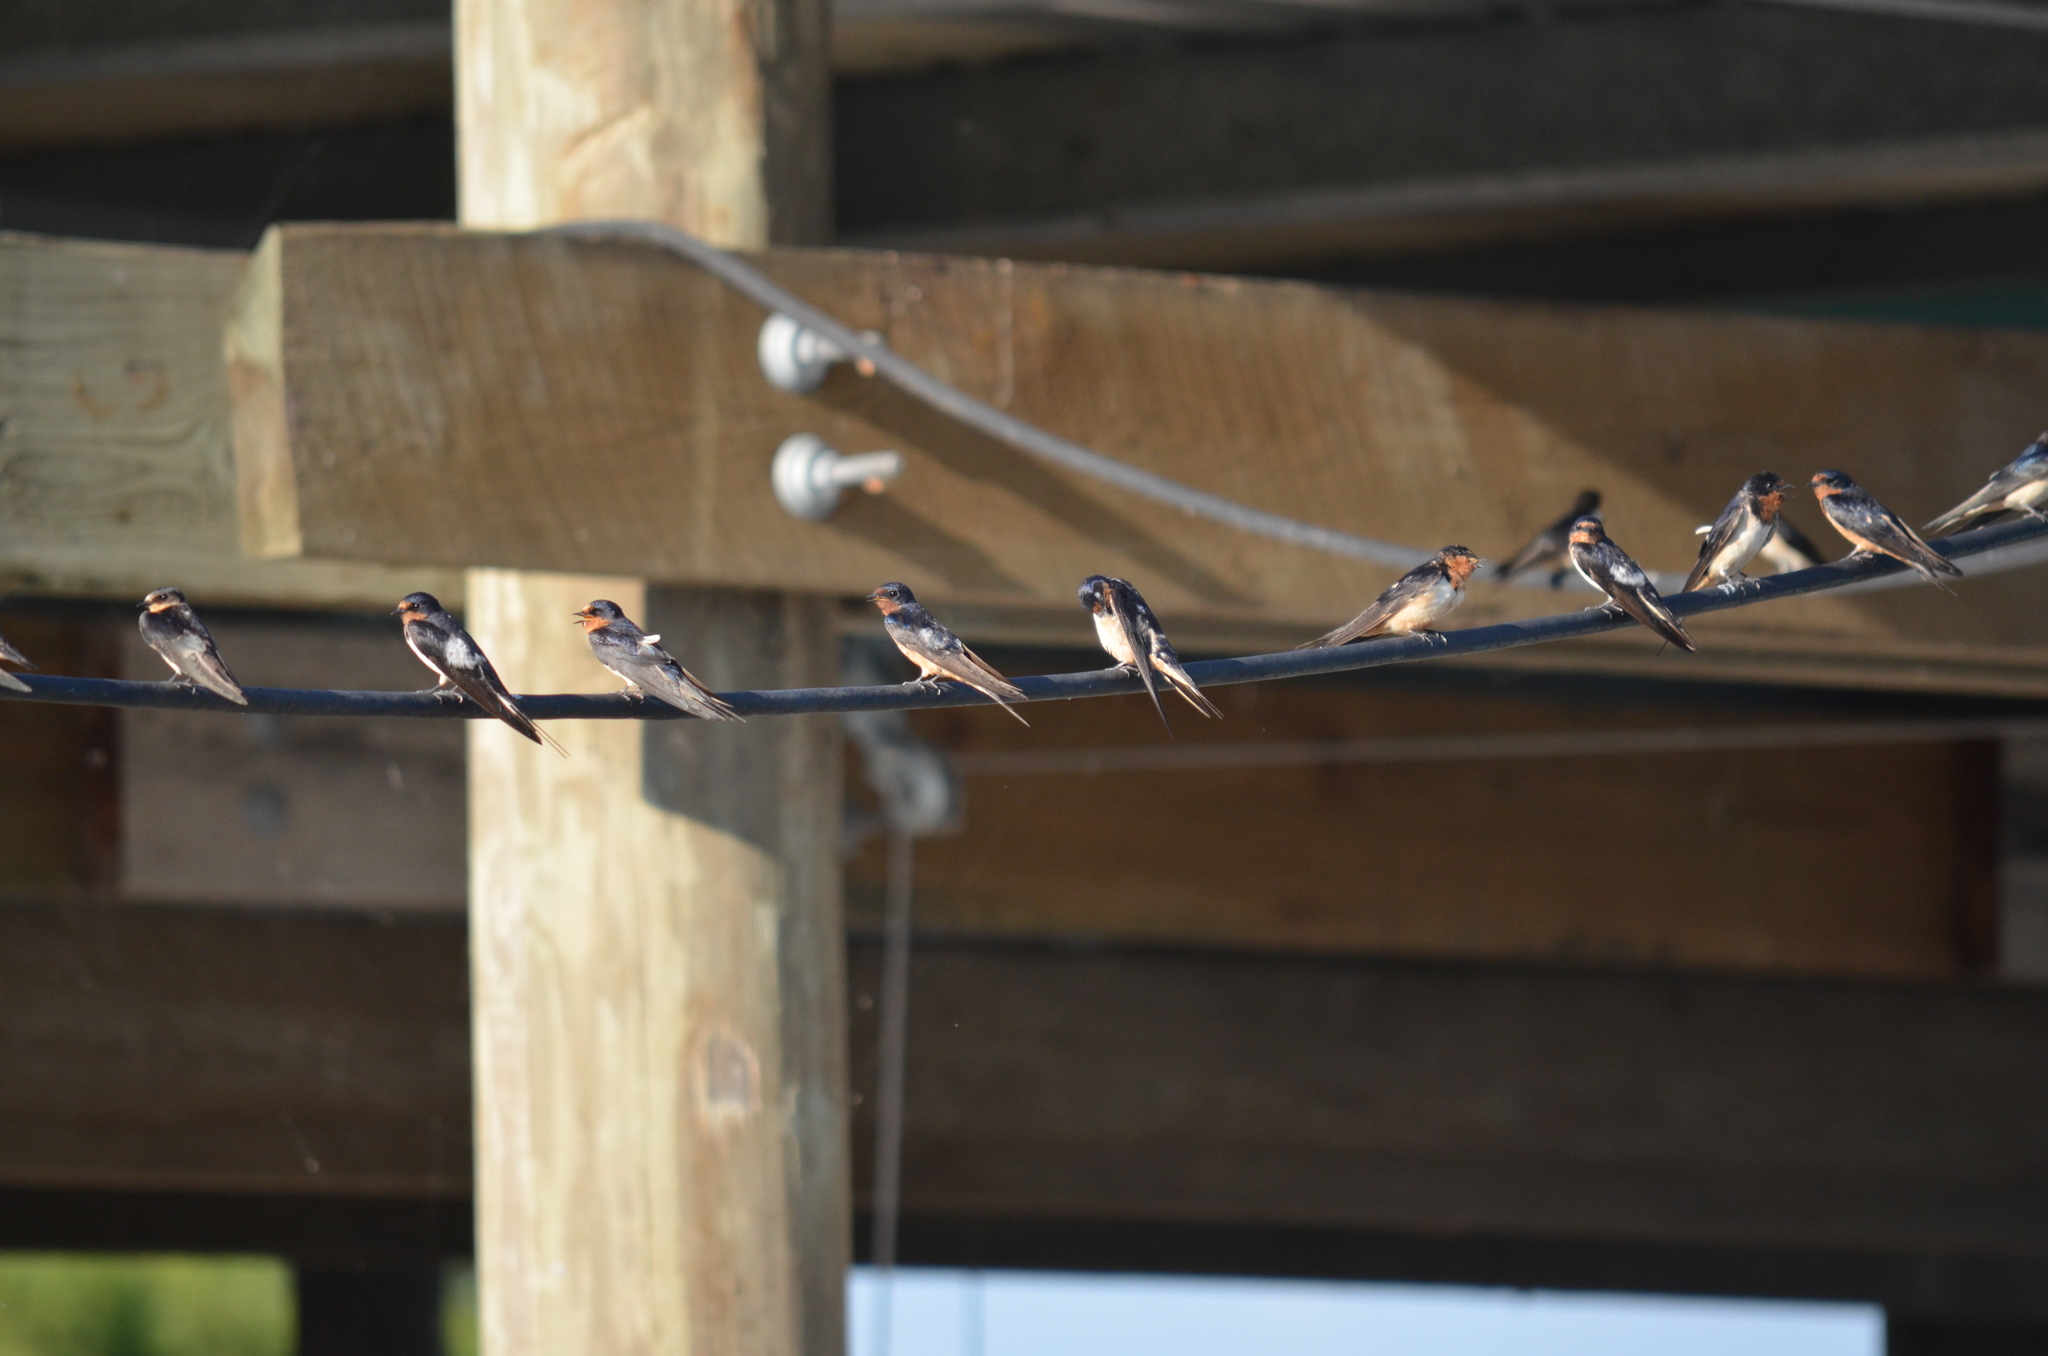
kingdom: Animalia
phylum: Chordata
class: Aves
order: Passeriformes
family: Hirundinidae
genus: Hirundo
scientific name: Hirundo rustica
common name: Barn swallow
